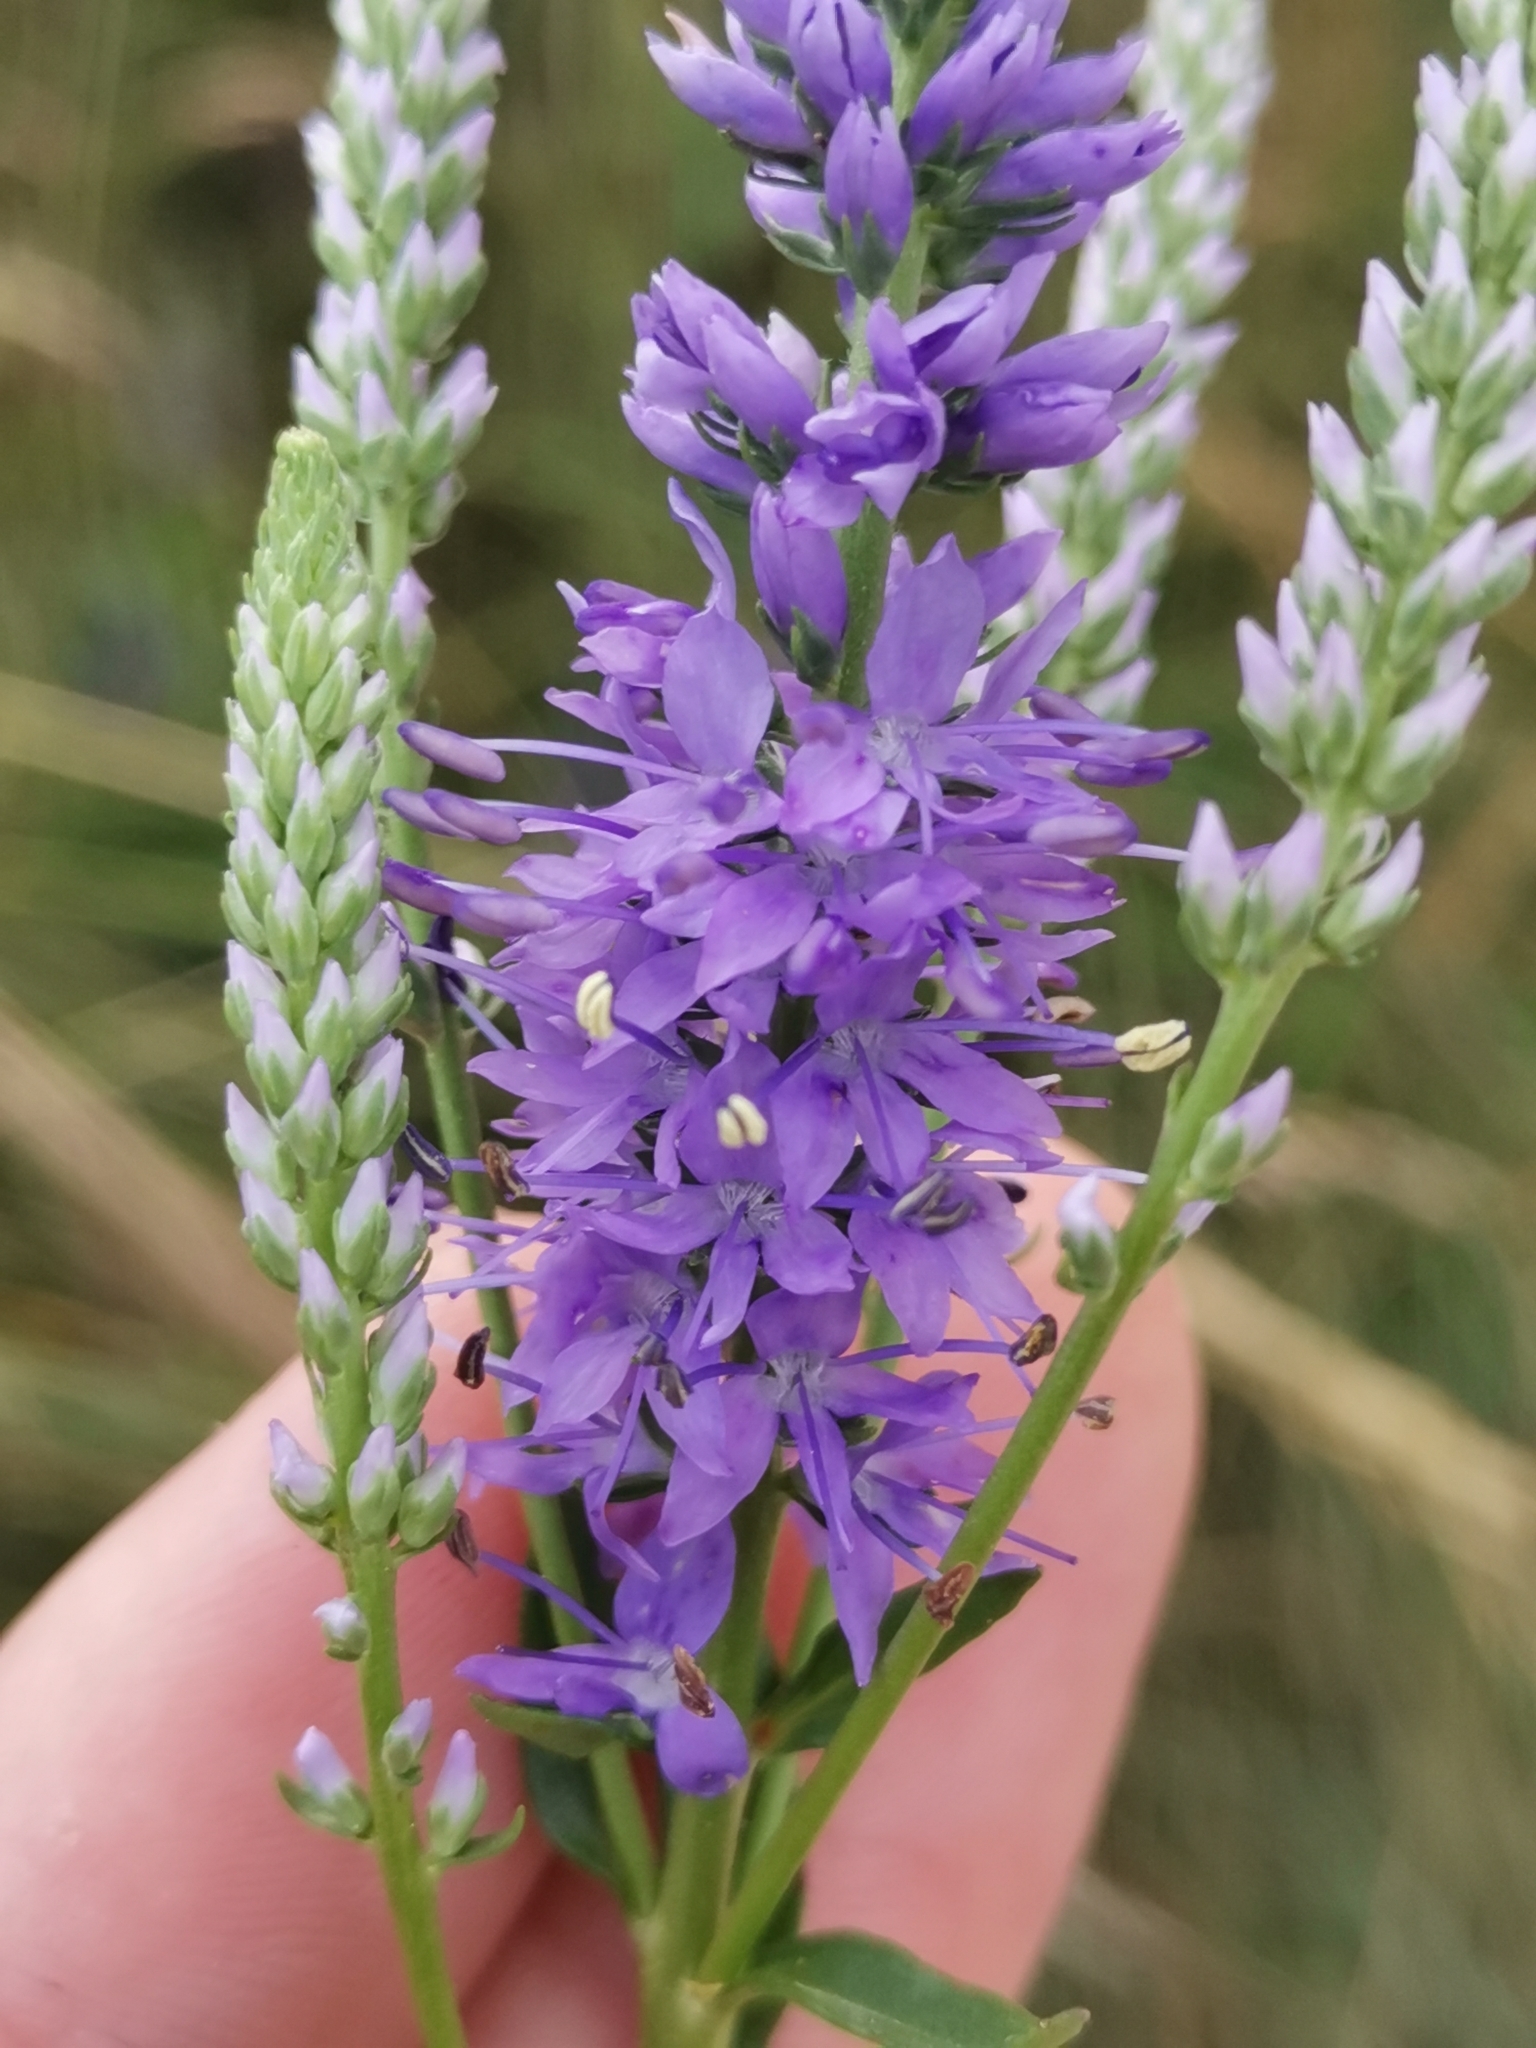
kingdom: Plantae
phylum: Tracheophyta
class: Magnoliopsida
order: Lamiales
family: Plantaginaceae
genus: Veronica
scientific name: Veronica barrelieri
